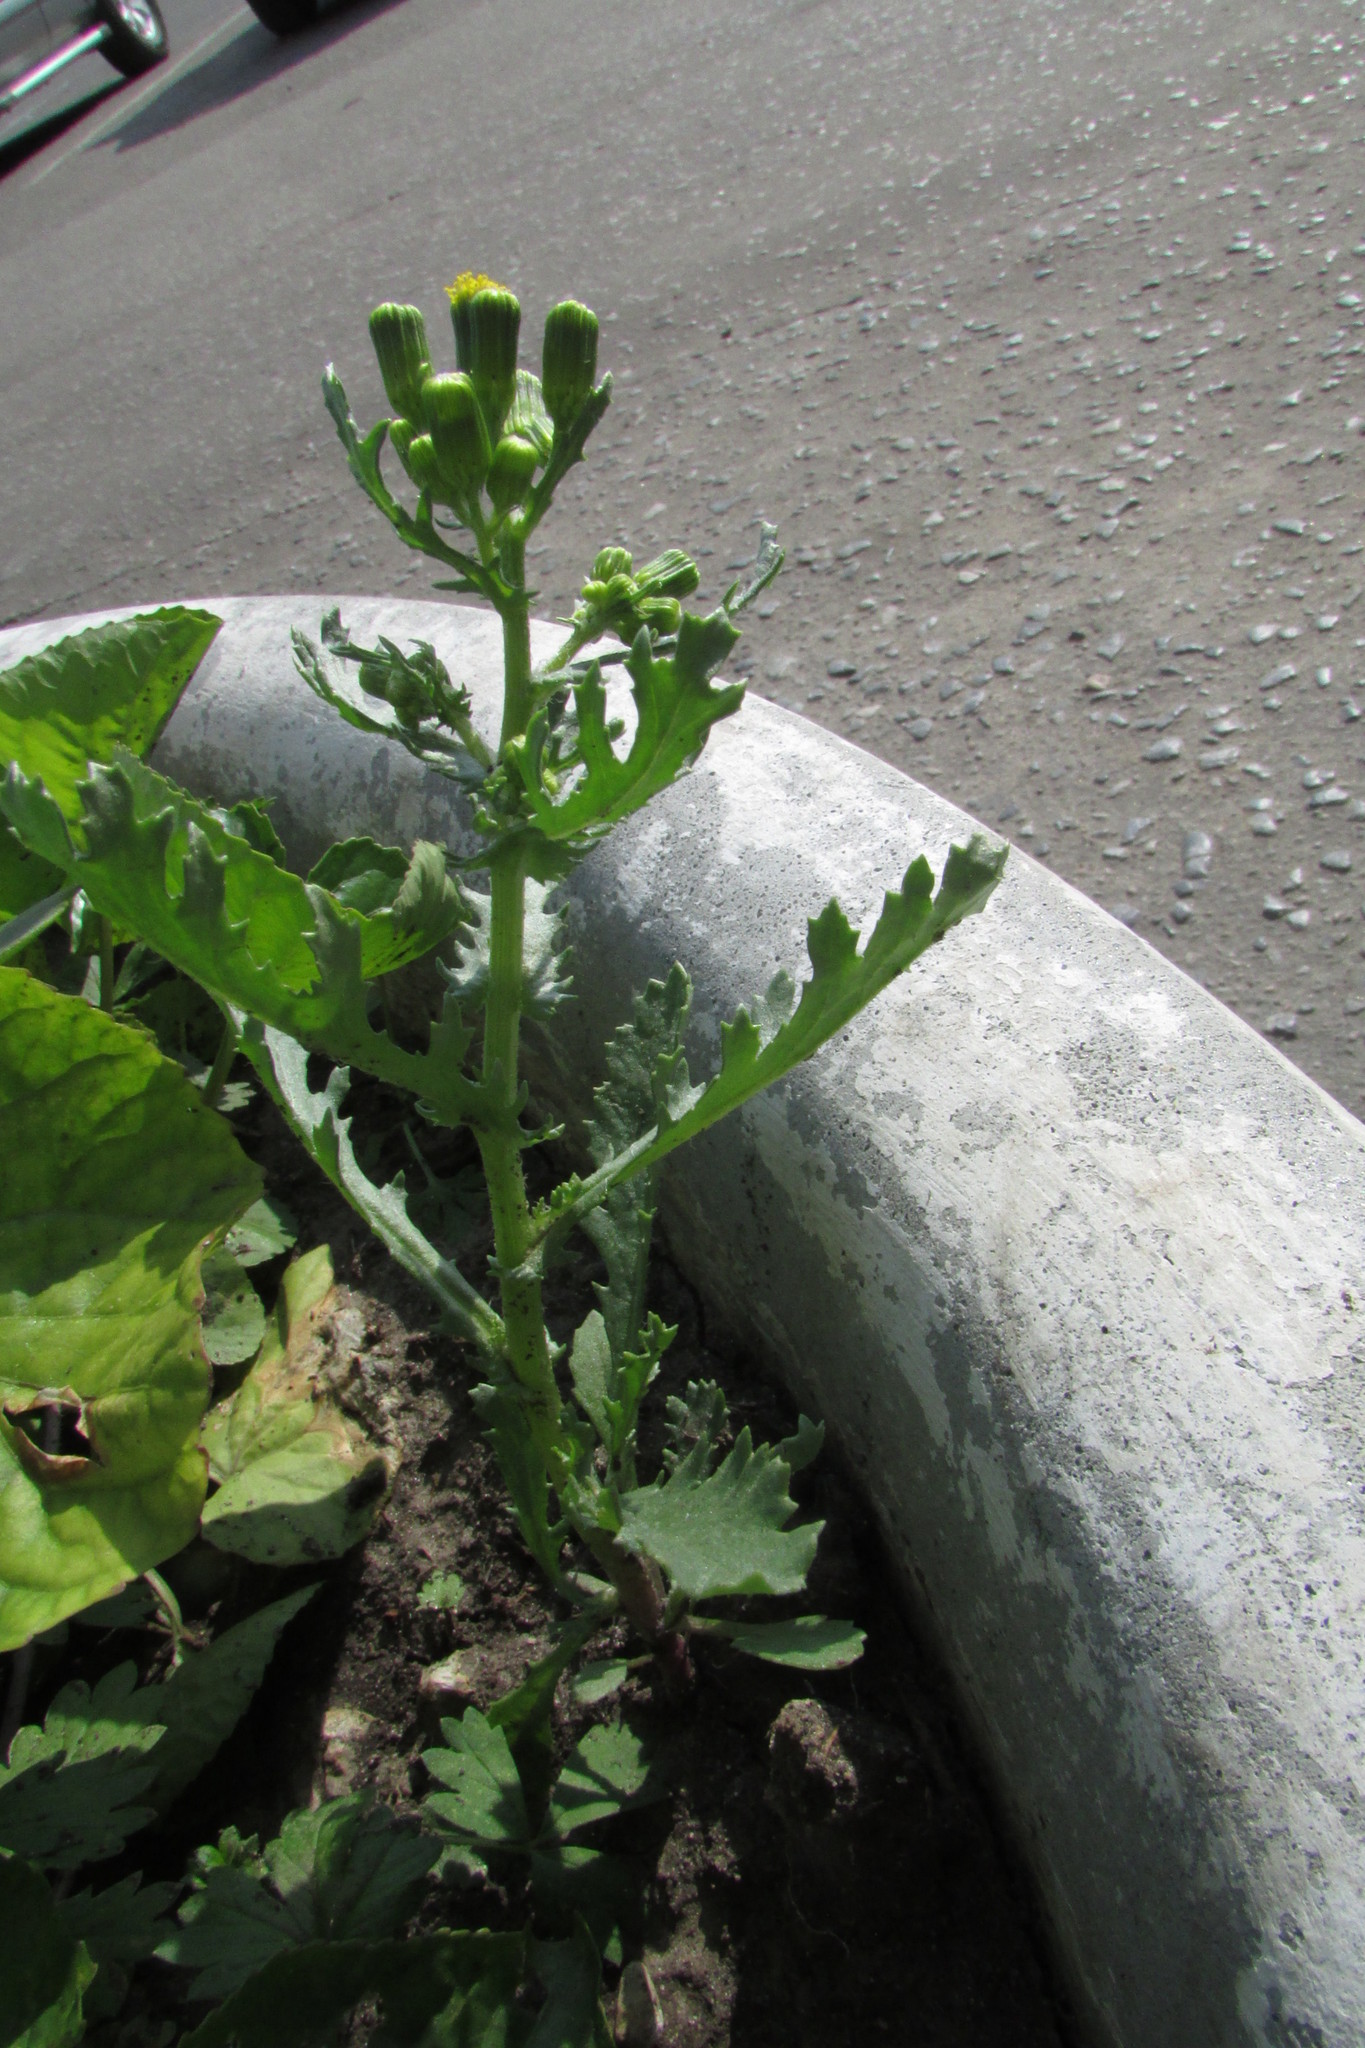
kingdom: Plantae
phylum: Tracheophyta
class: Magnoliopsida
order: Asterales
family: Asteraceae
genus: Senecio
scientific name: Senecio vulgaris
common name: Old-man-in-the-spring
